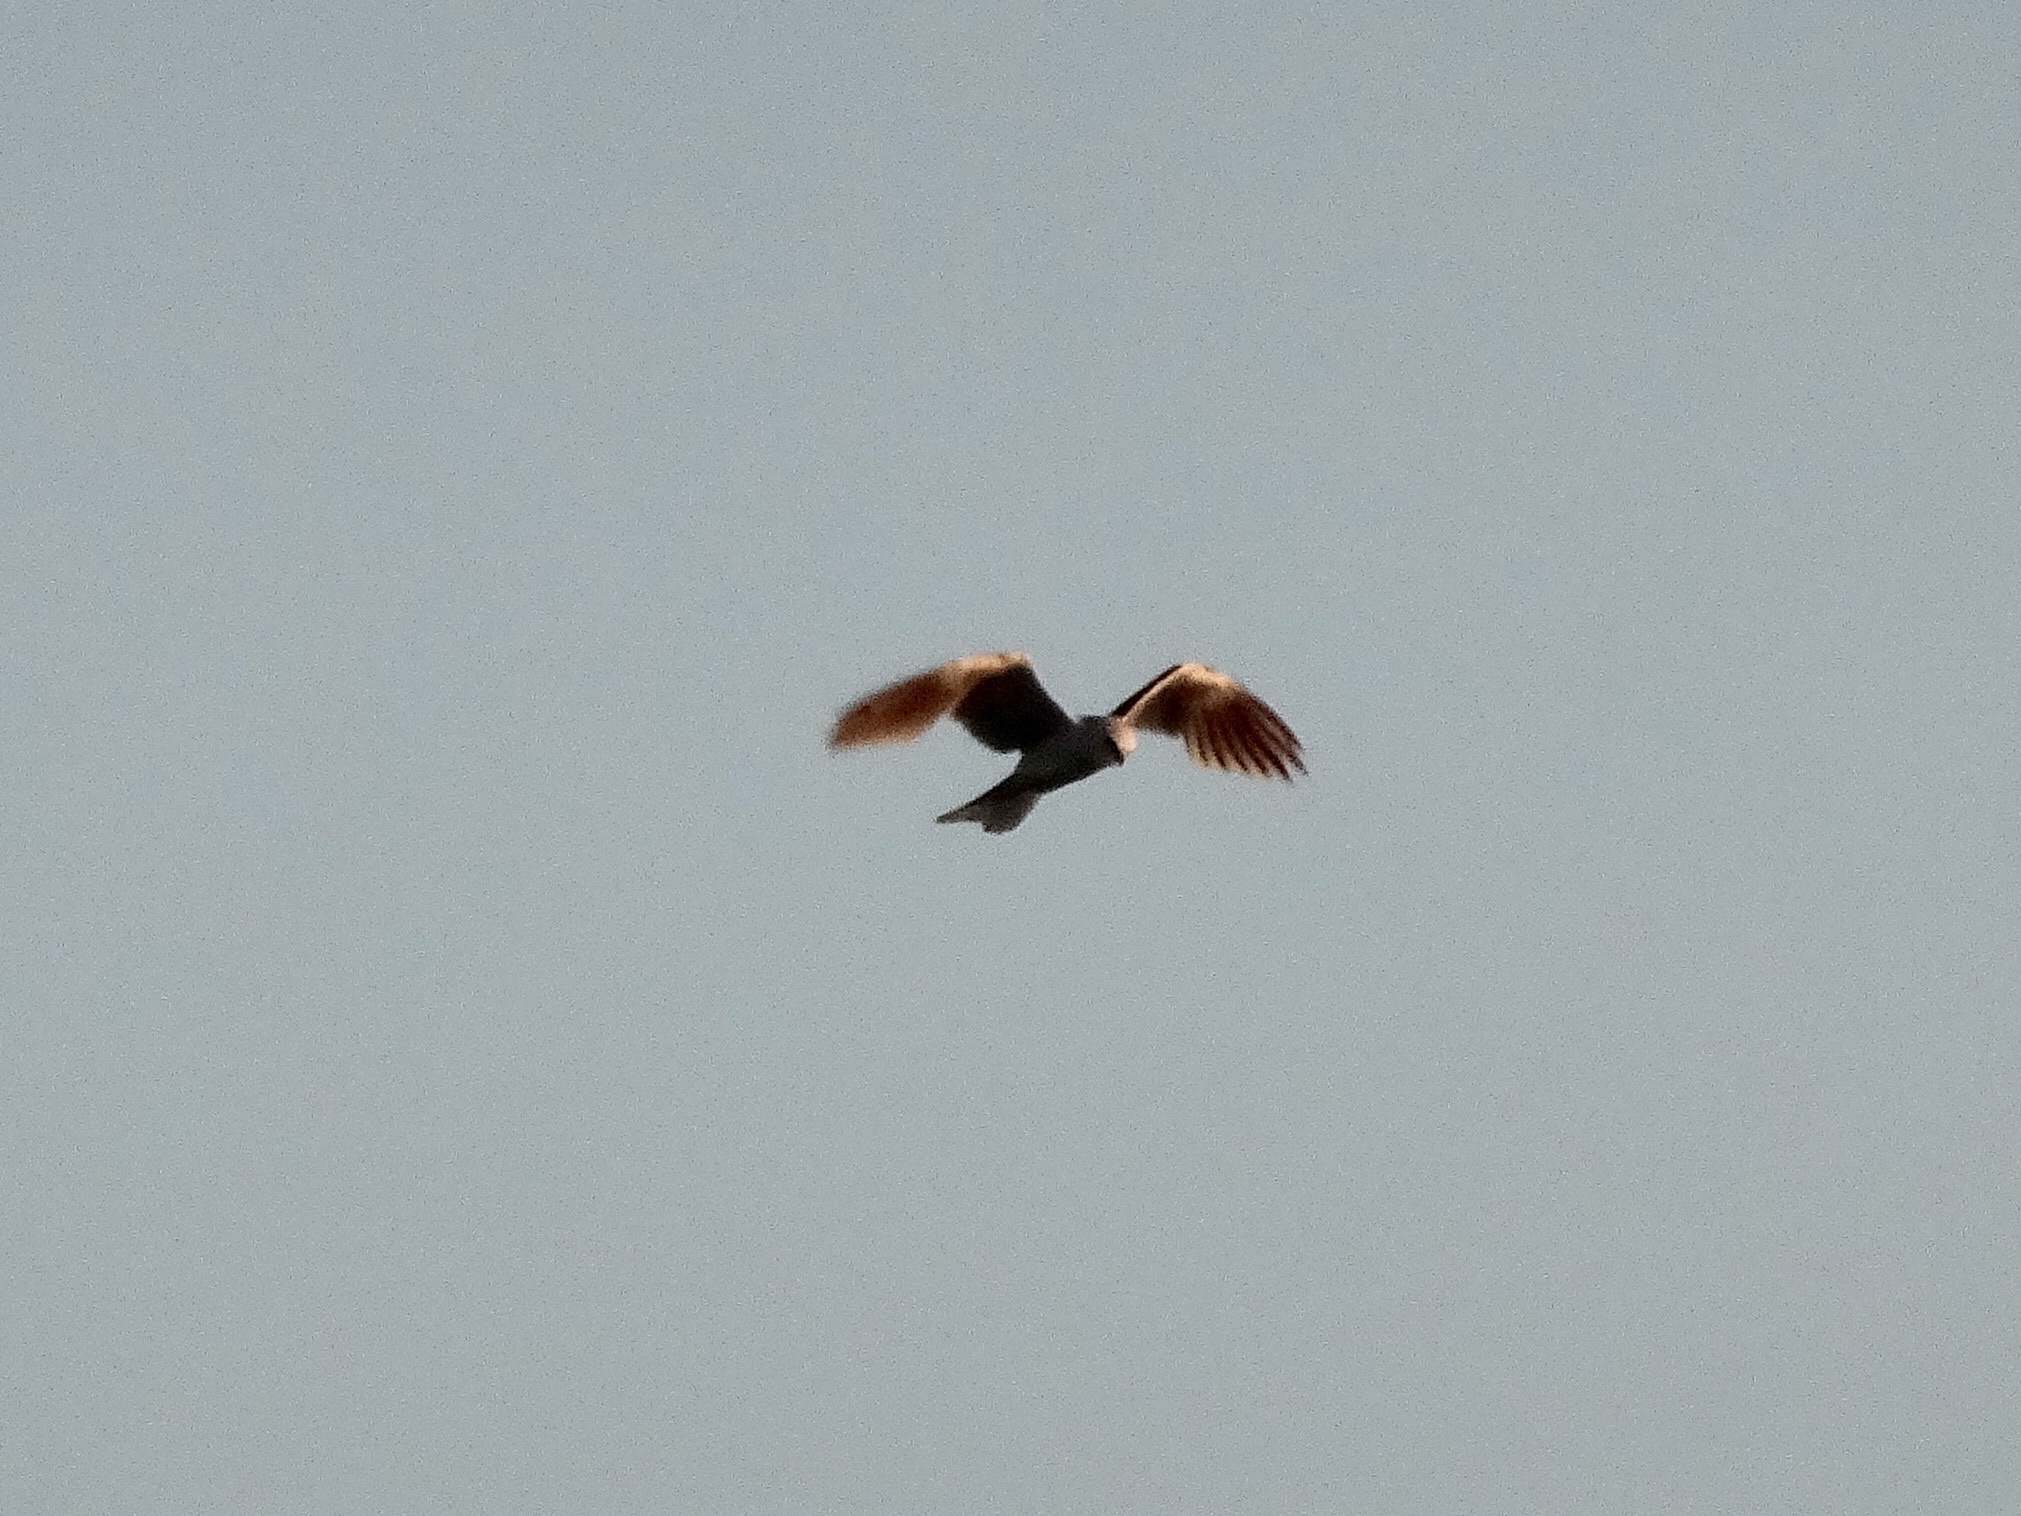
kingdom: Animalia
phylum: Chordata
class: Aves
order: Accipitriformes
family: Accipitridae
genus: Elanus
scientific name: Elanus leucurus
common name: White-tailed kite
